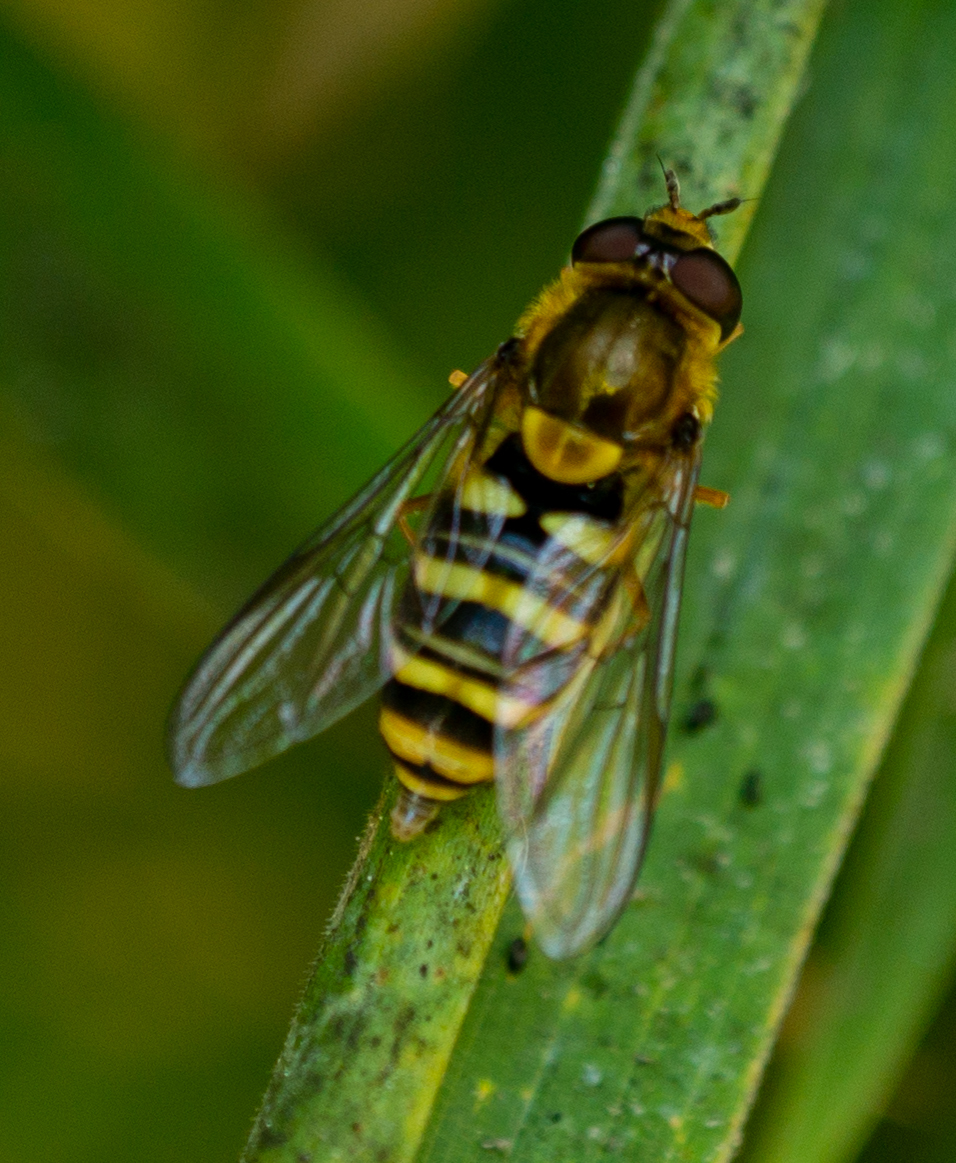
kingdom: Animalia
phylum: Arthropoda
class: Insecta
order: Diptera
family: Syrphidae
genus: Syrphus
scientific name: Syrphus opinator
